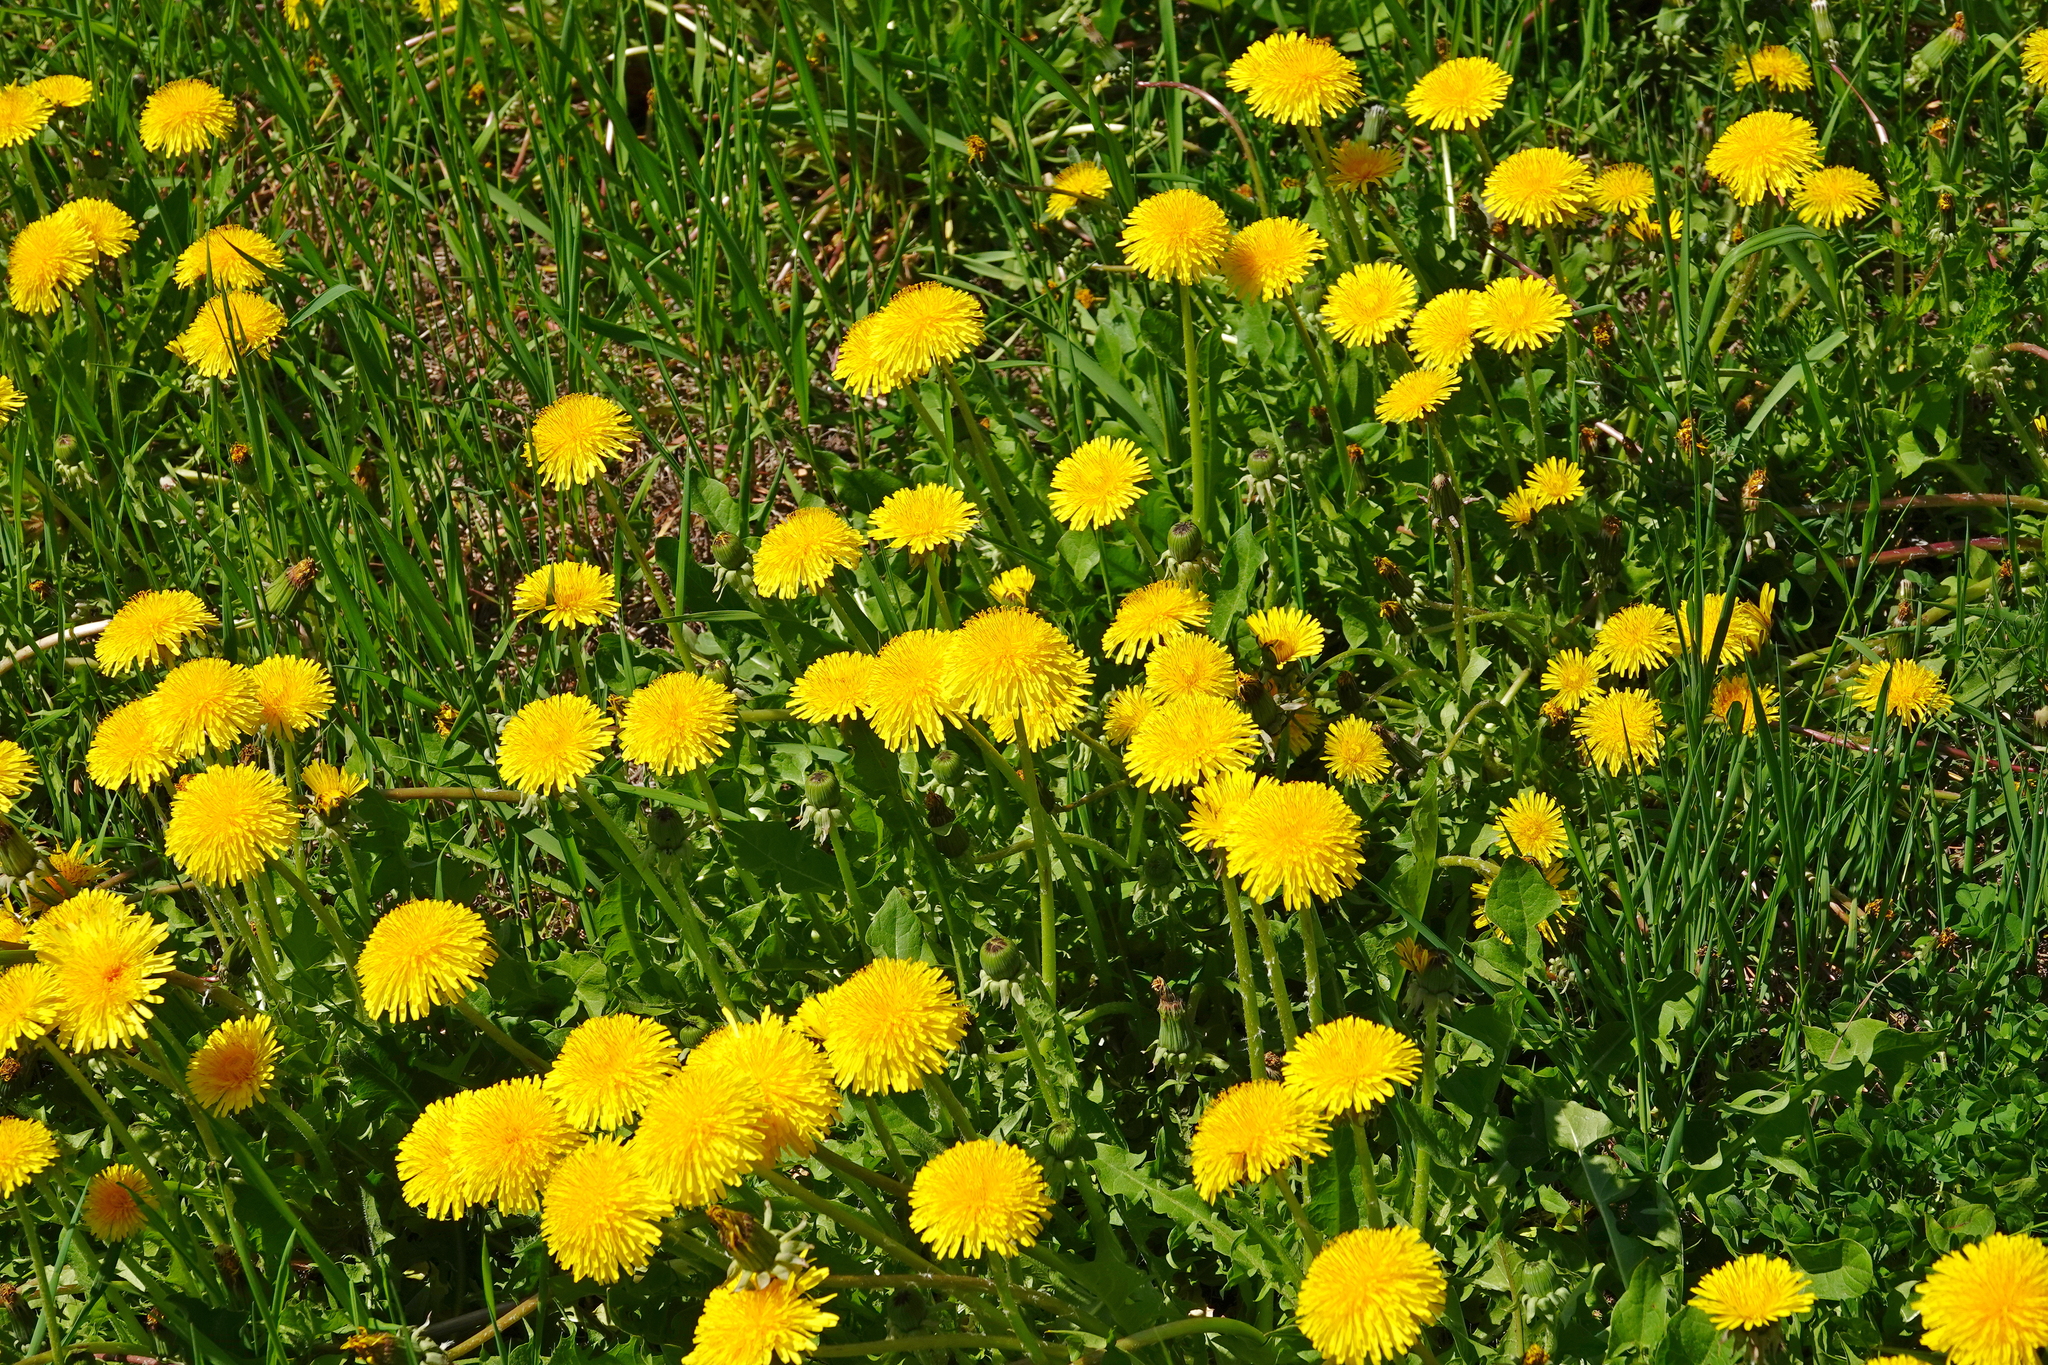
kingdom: Plantae
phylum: Tracheophyta
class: Magnoliopsida
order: Asterales
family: Asteraceae
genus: Taraxacum
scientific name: Taraxacum officinale
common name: Common dandelion
